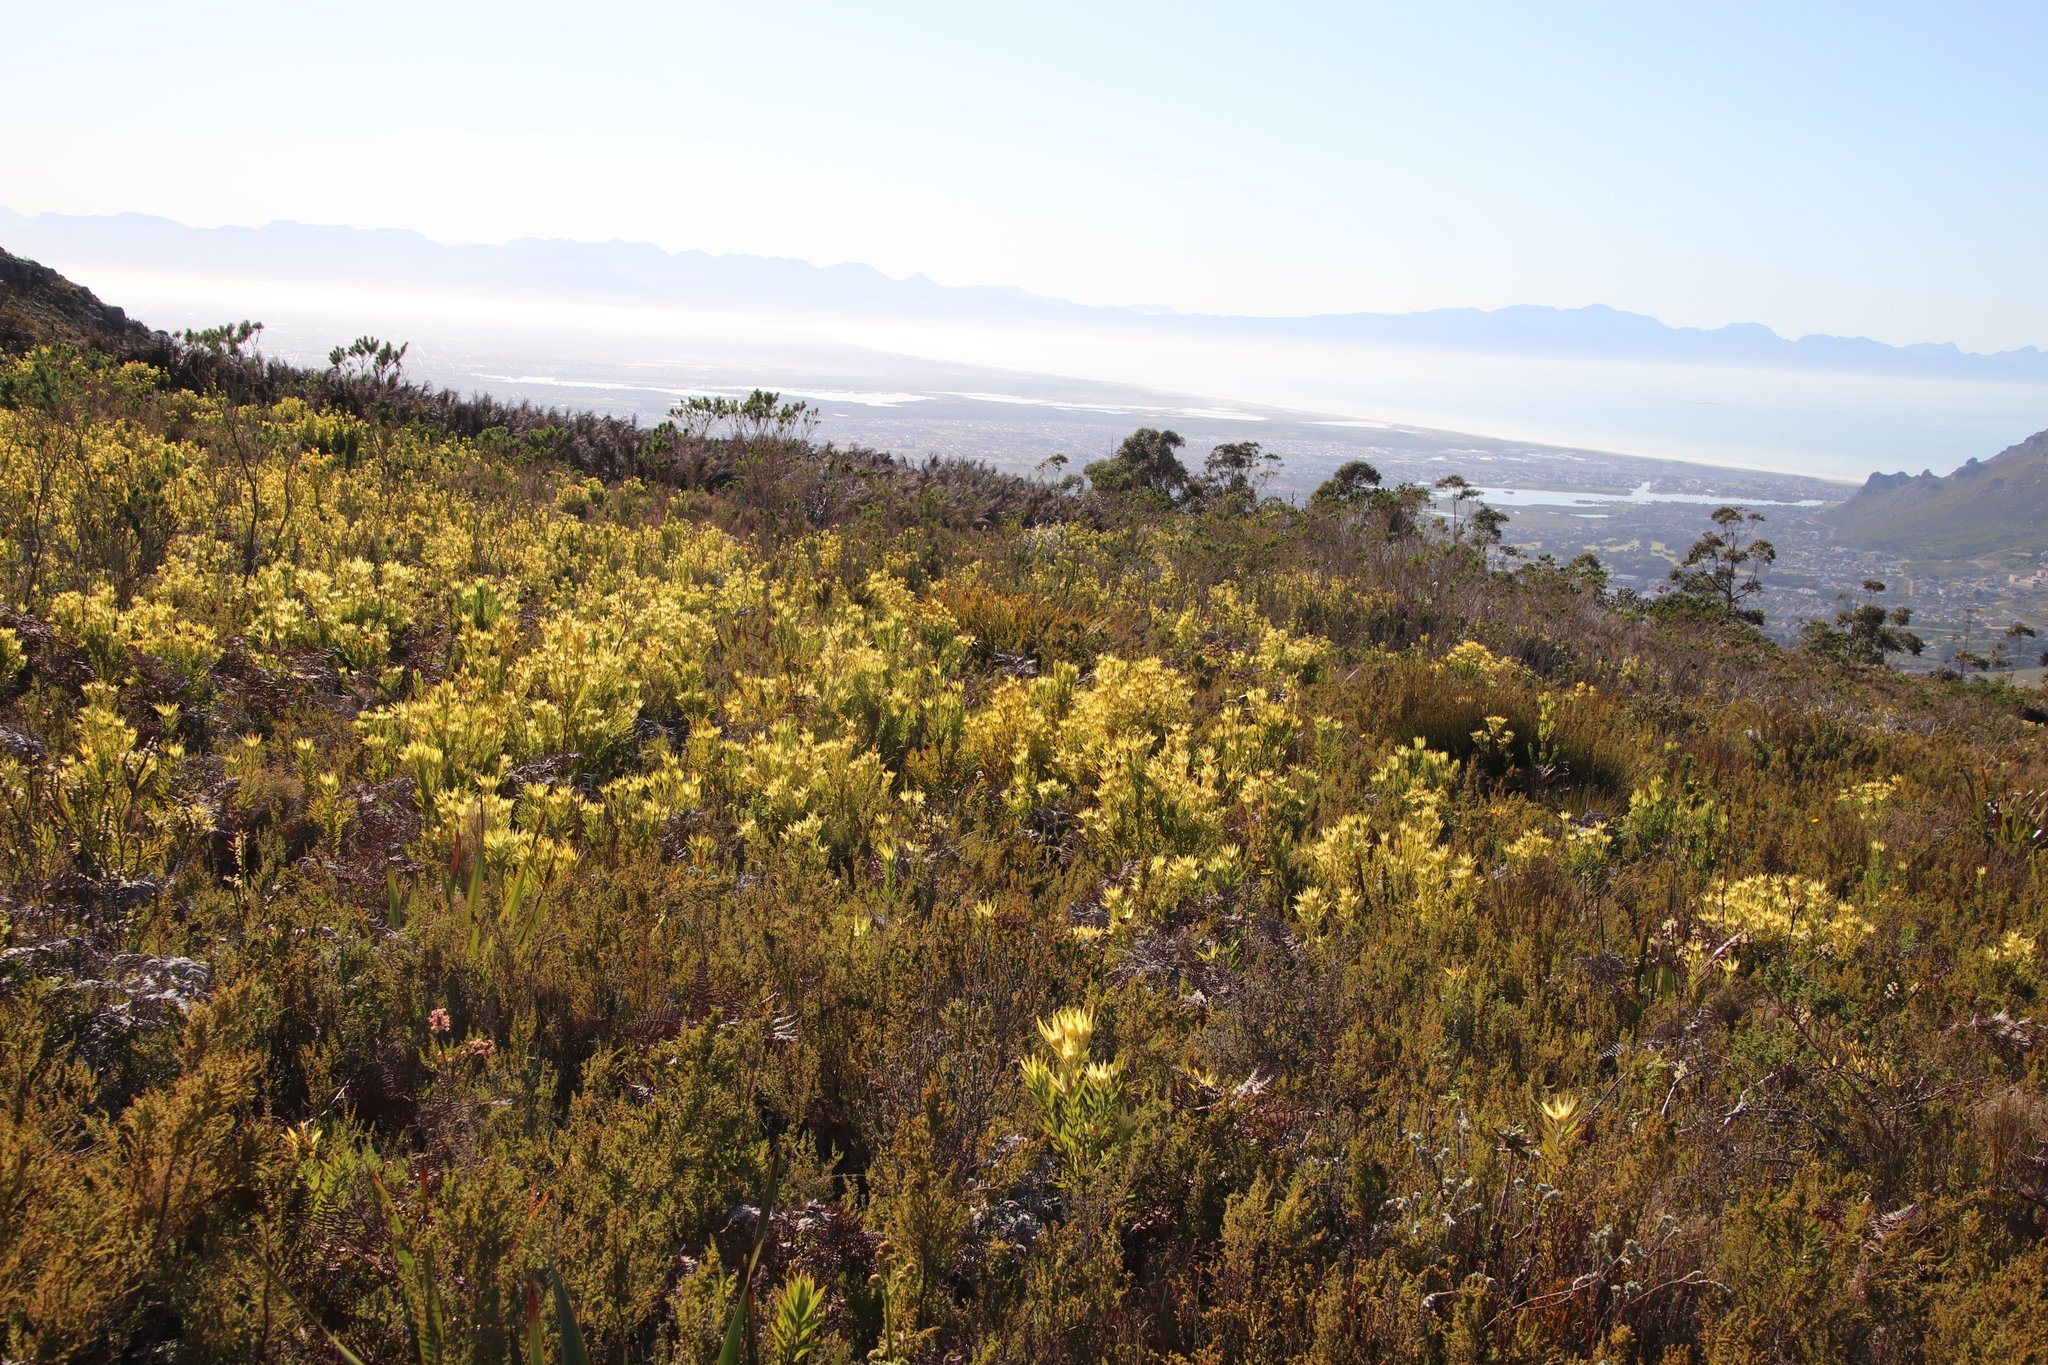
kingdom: Plantae
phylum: Tracheophyta
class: Magnoliopsida
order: Proteales
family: Proteaceae
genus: Leucadendron
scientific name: Leucadendron xanthoconus
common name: Sickle-leaf conebush
